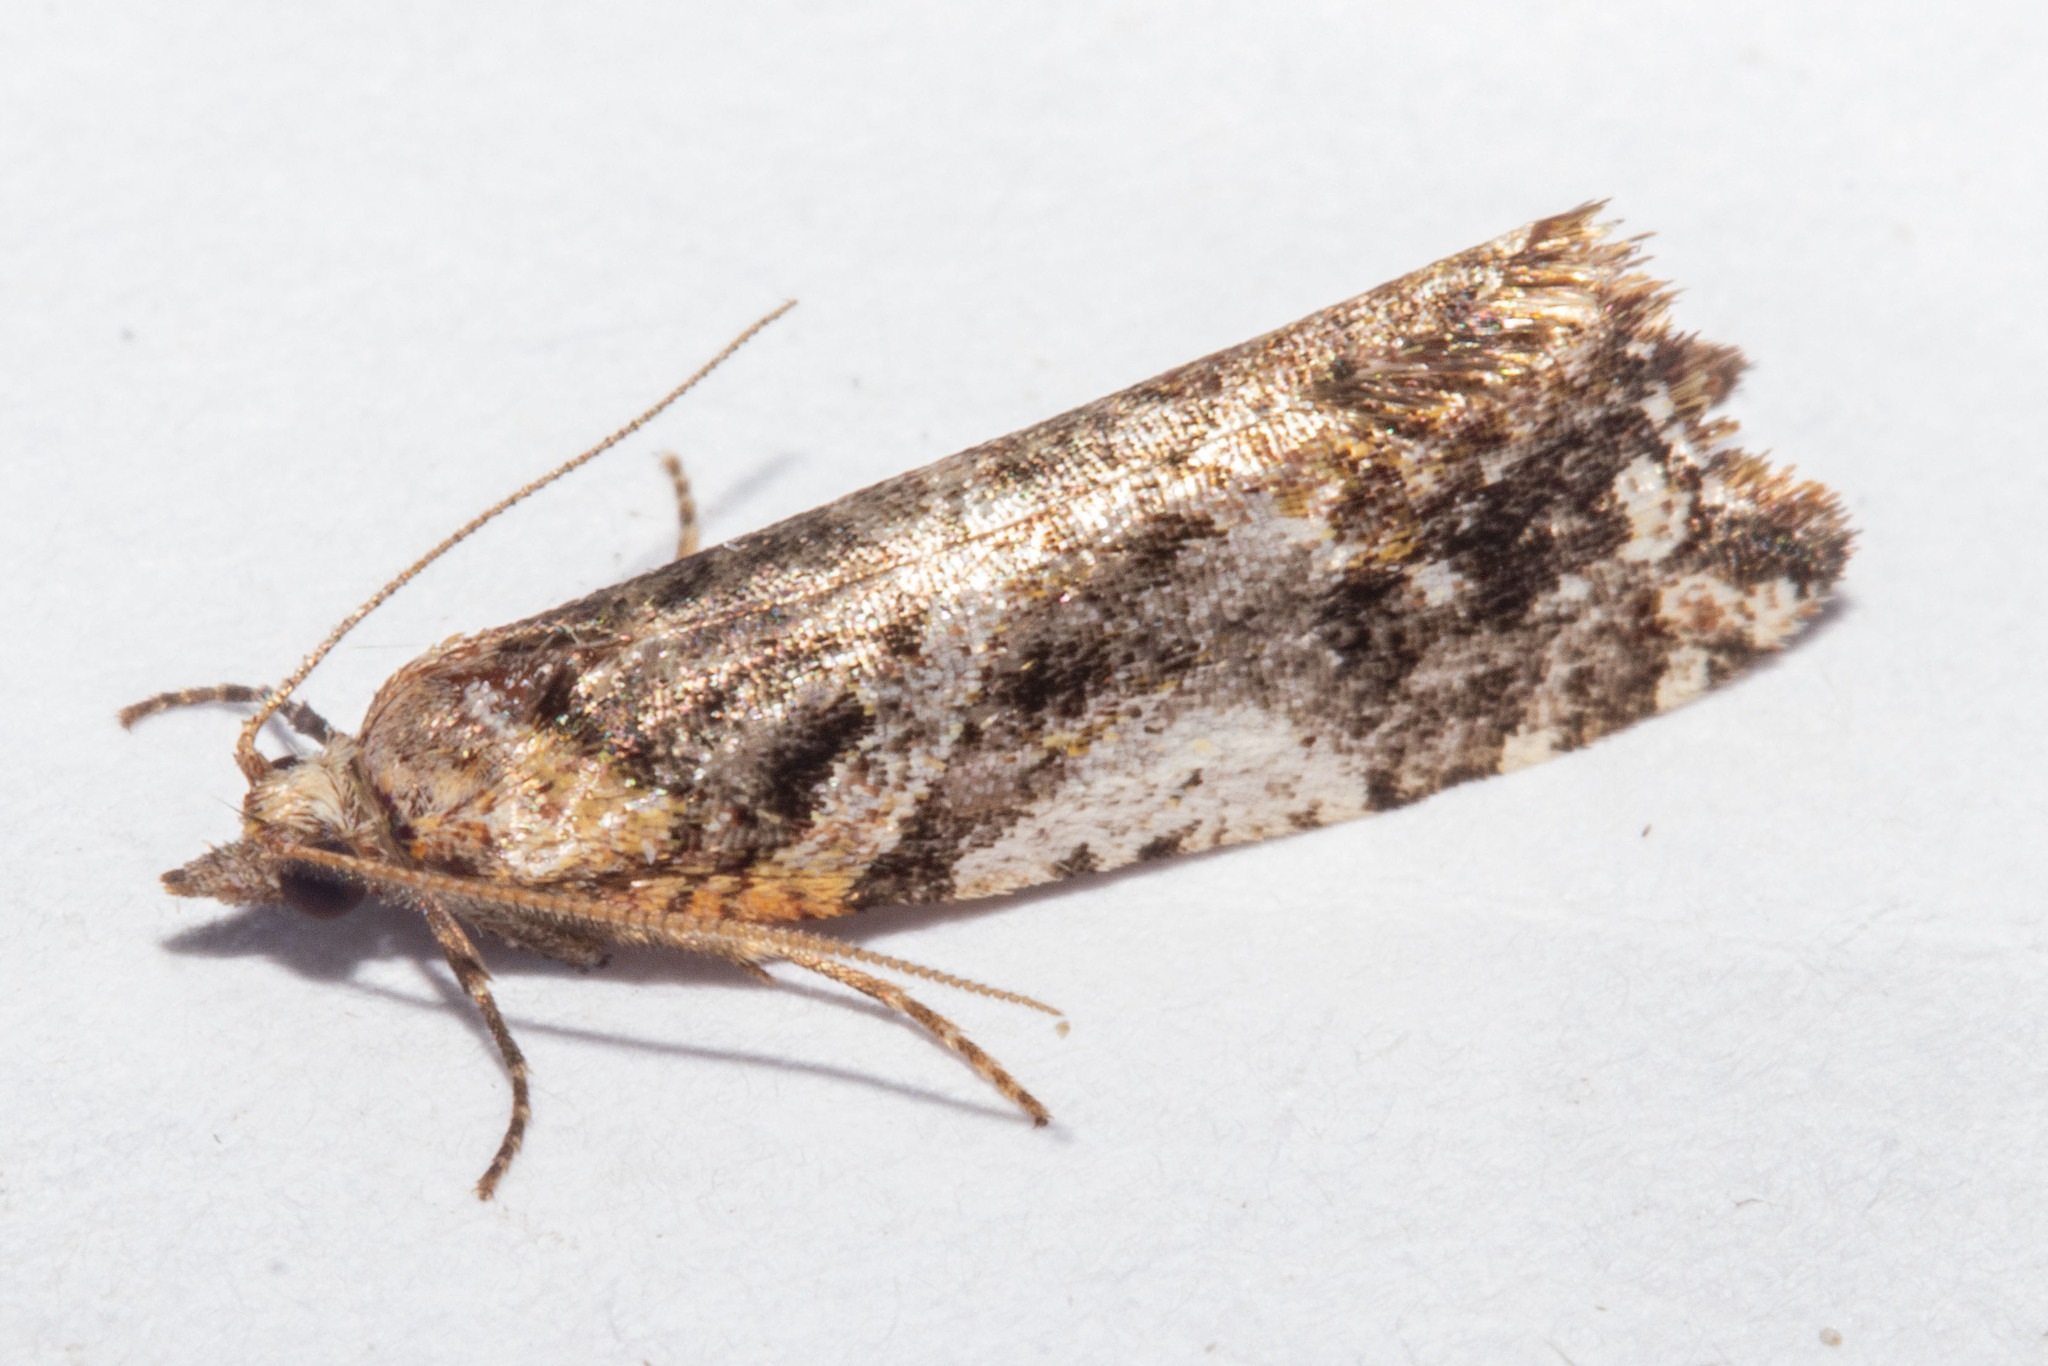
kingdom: Animalia
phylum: Arthropoda
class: Insecta
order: Lepidoptera
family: Tortricidae
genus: Pyrgotis
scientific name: Pyrgotis plagiatana
